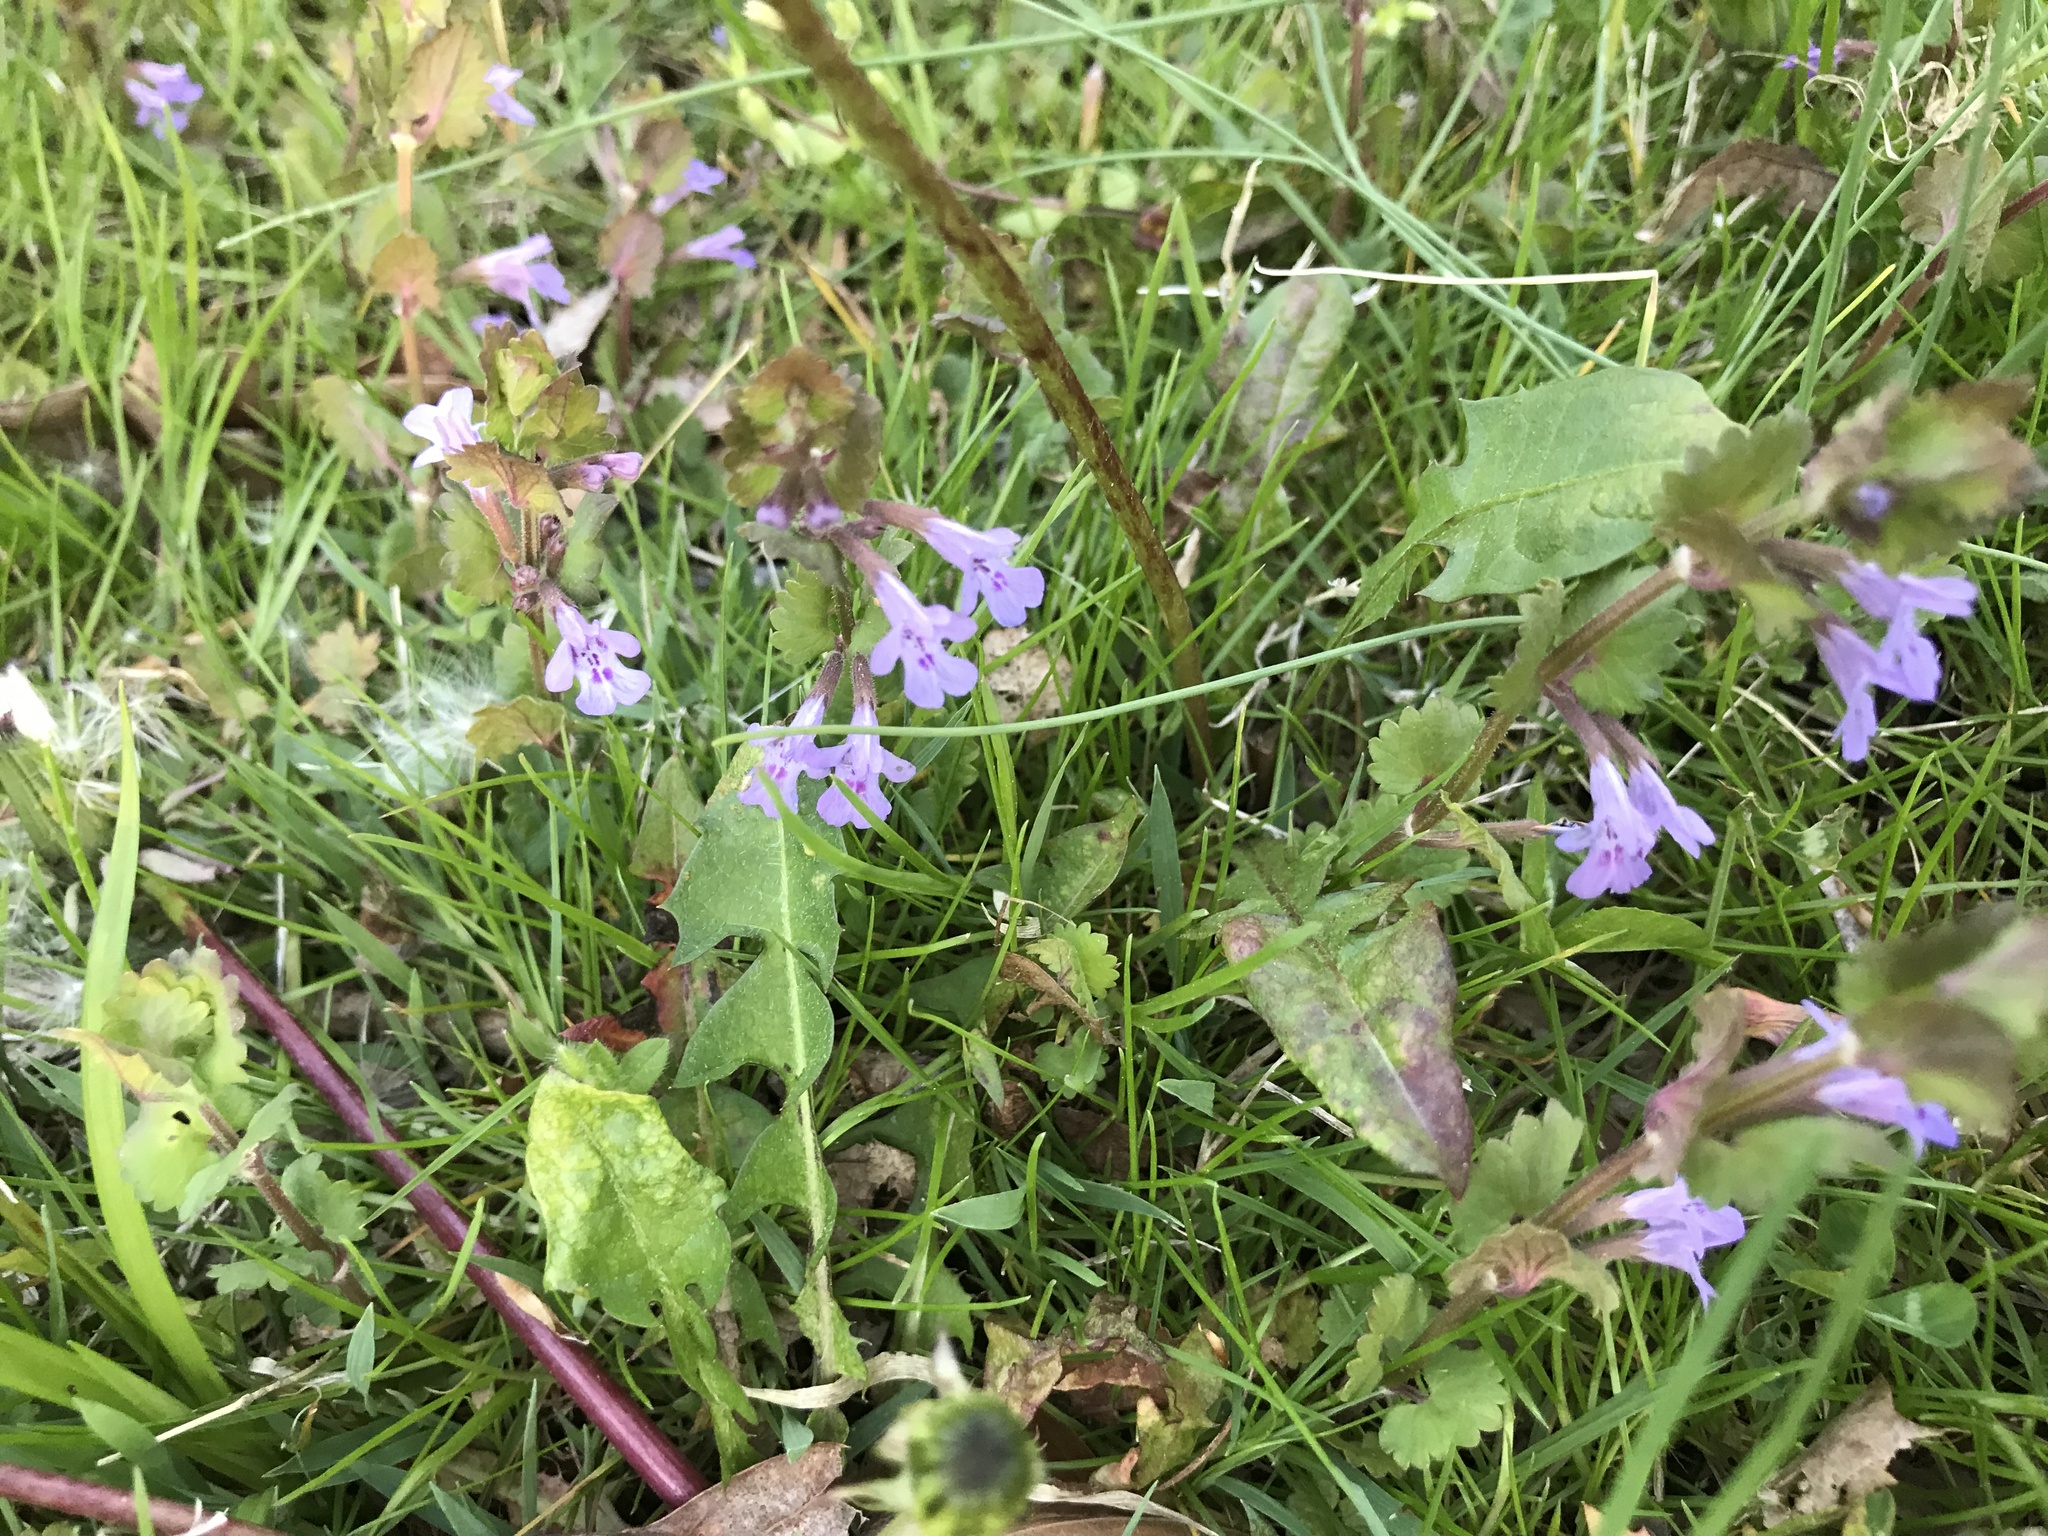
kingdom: Plantae
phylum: Tracheophyta
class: Magnoliopsida
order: Lamiales
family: Lamiaceae
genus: Glechoma
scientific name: Glechoma hederacea
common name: Ground ivy
